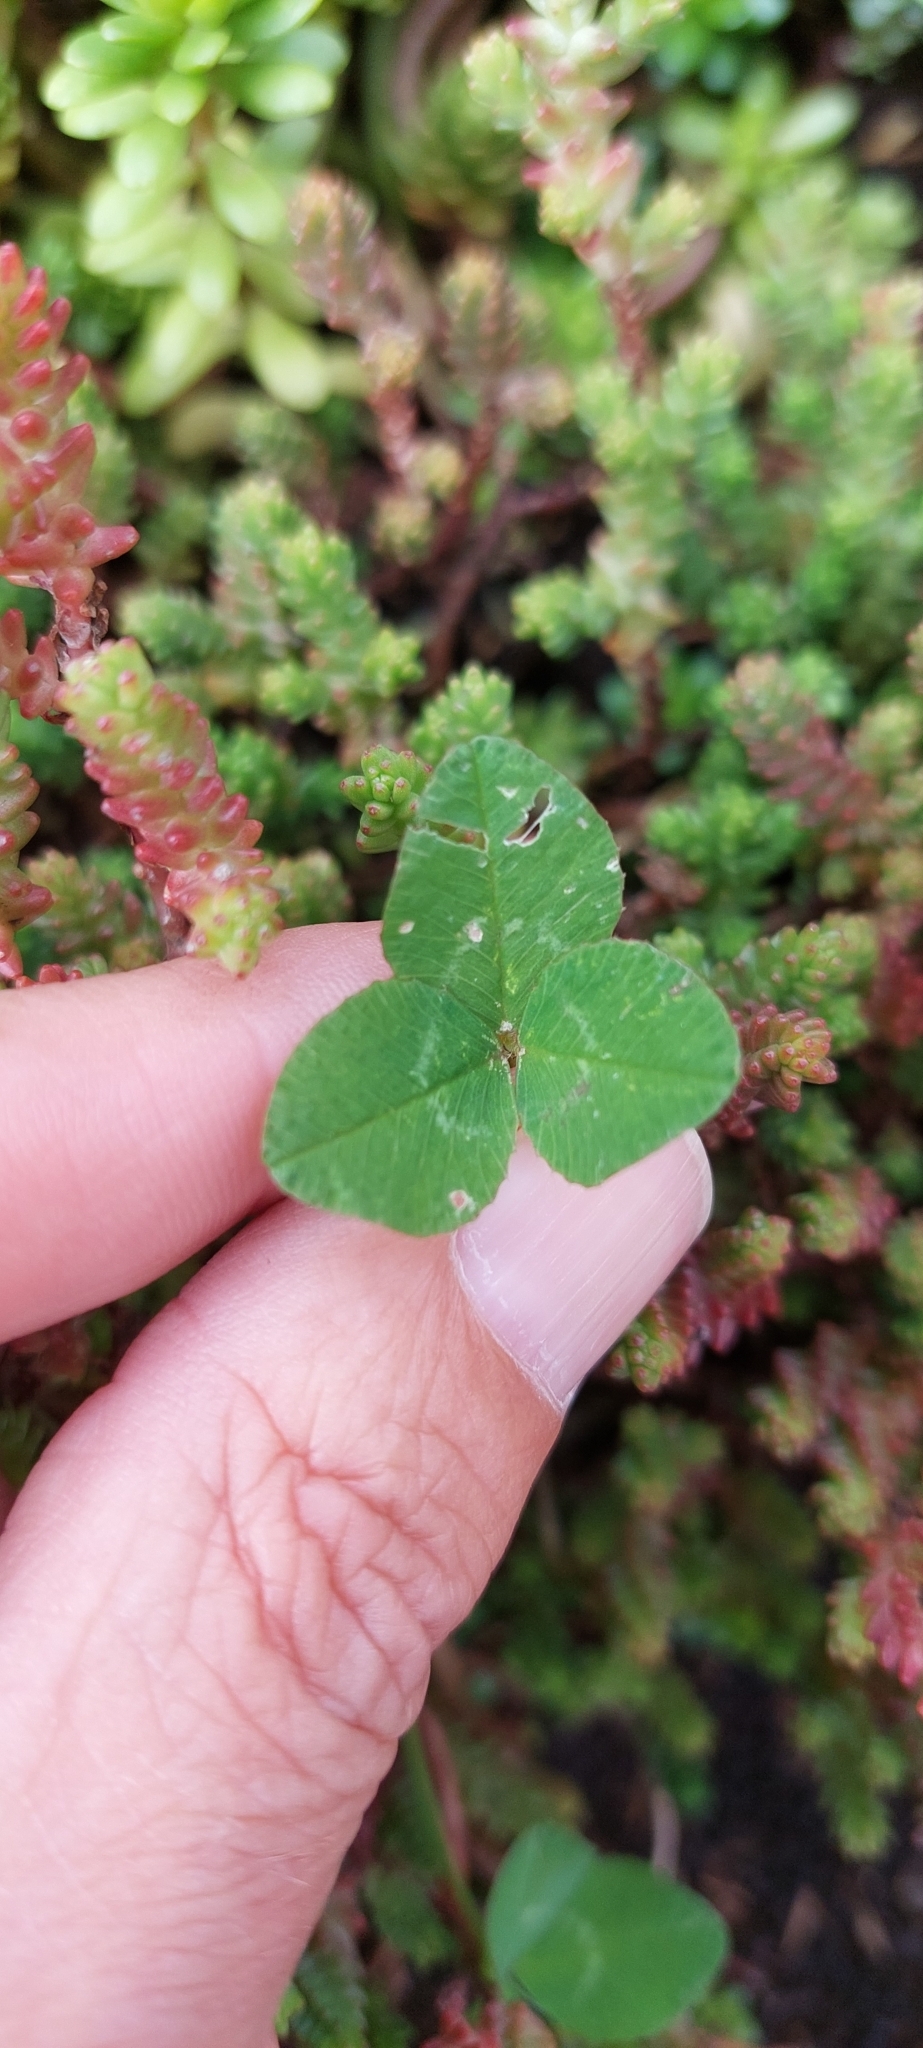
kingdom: Plantae
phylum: Tracheophyta
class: Magnoliopsida
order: Fabales
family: Fabaceae
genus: Trifolium
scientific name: Trifolium repens
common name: White clover
